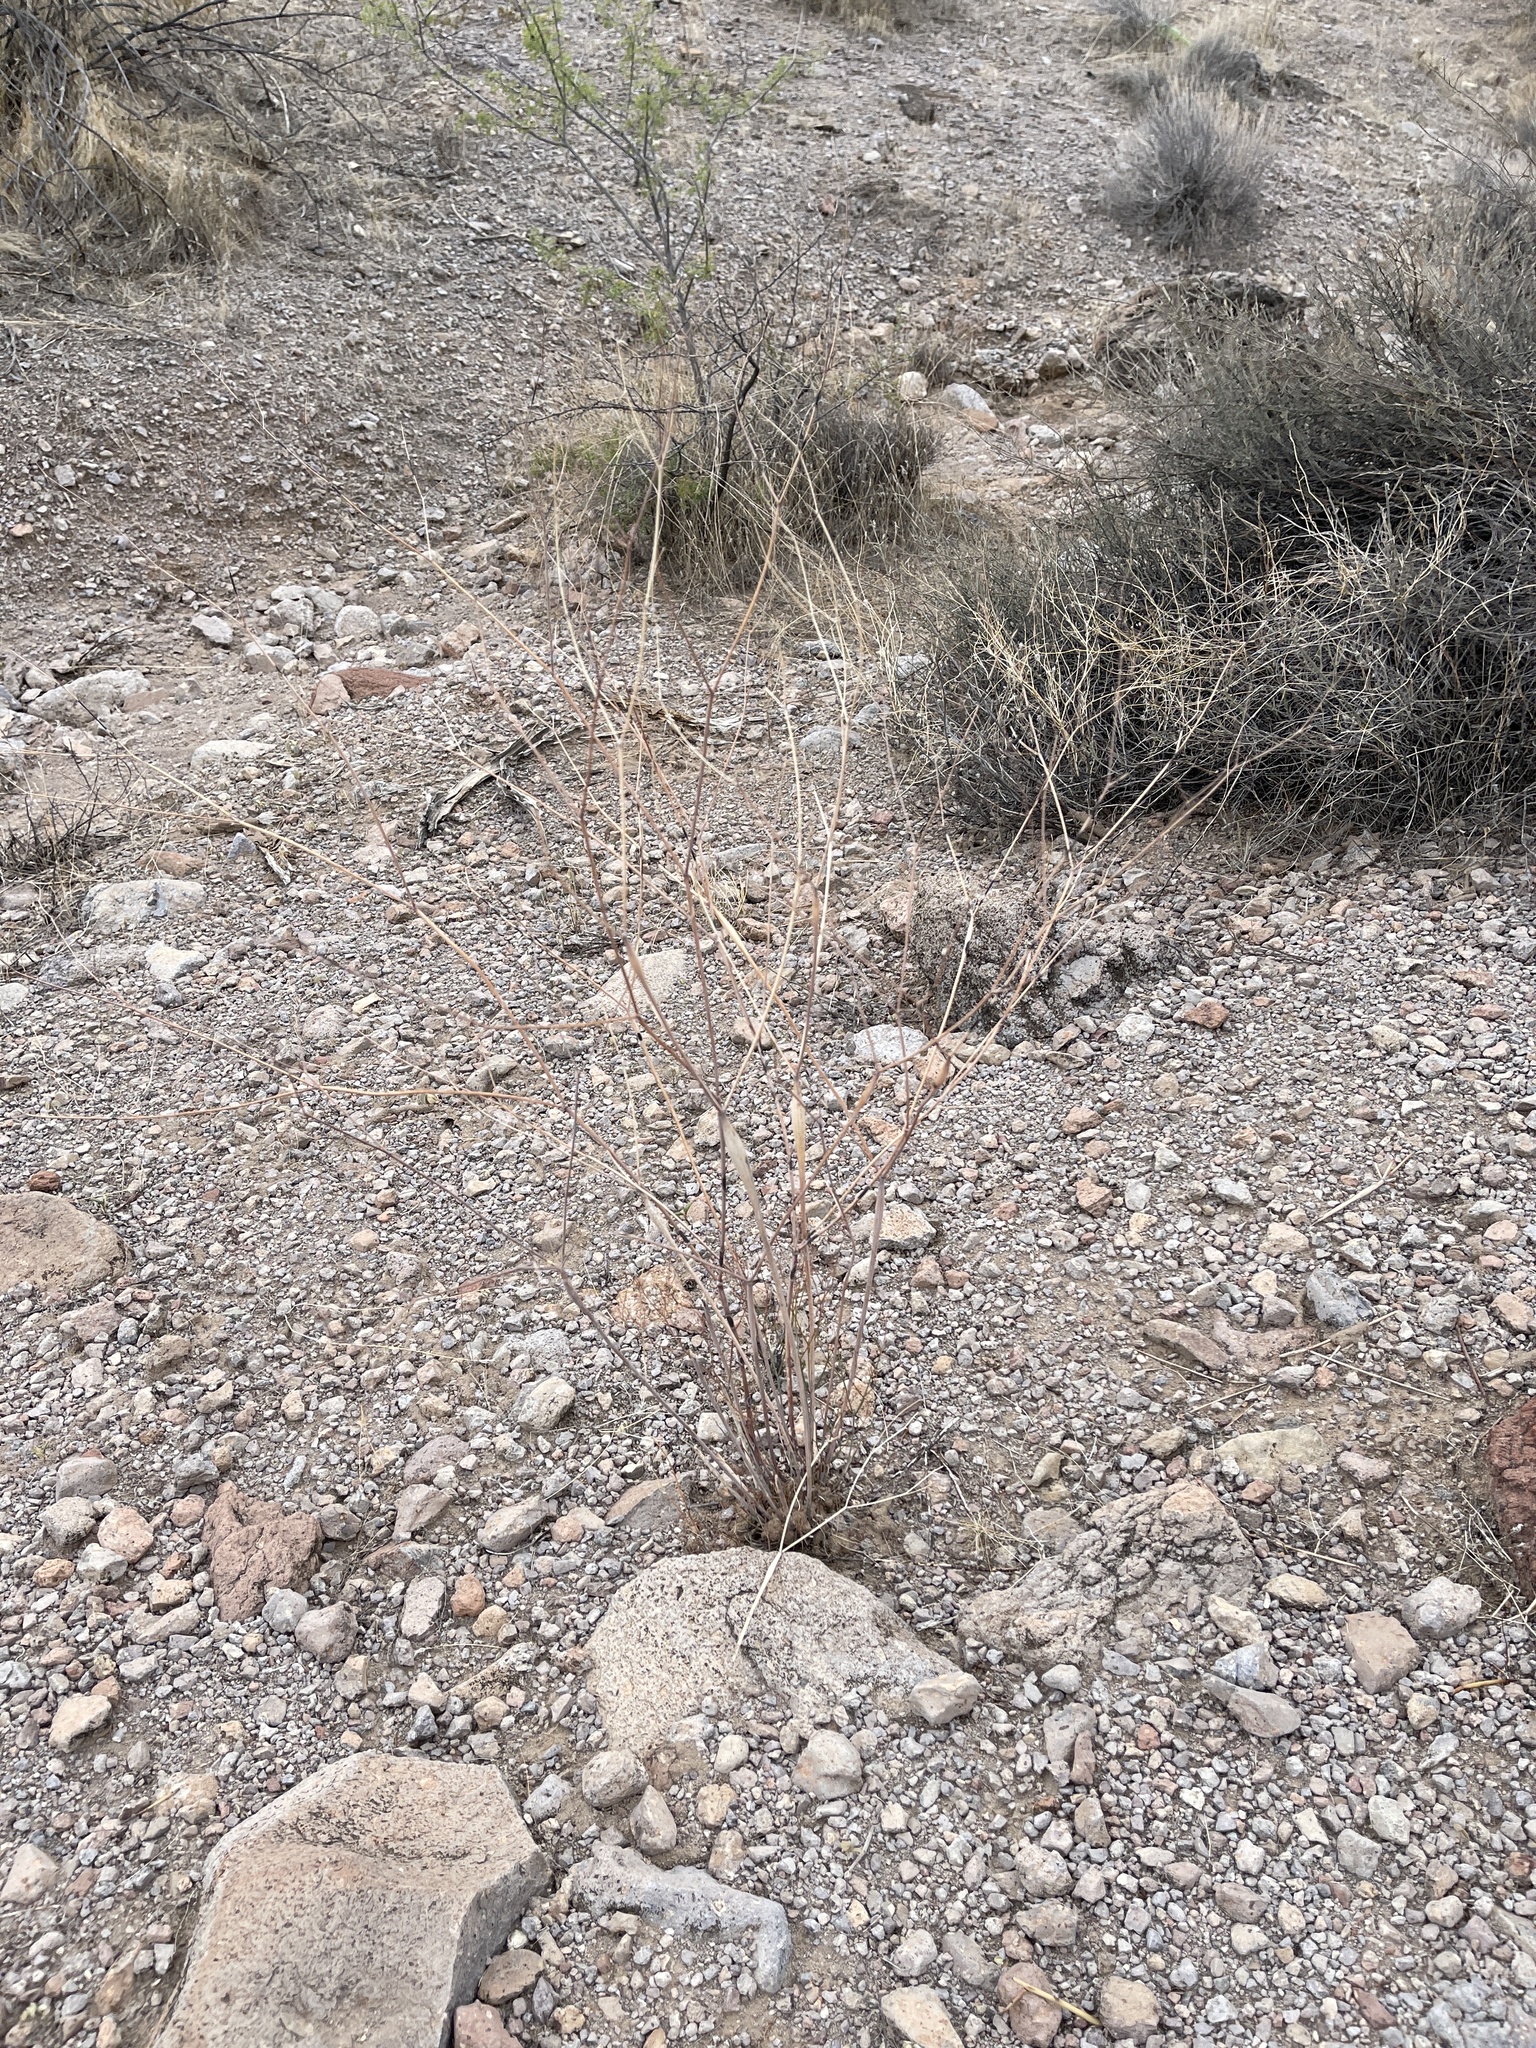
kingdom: Plantae
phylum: Tracheophyta
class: Magnoliopsida
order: Caryophyllales
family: Polygonaceae
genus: Eriogonum
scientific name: Eriogonum inflatum
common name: Desert trumpet
